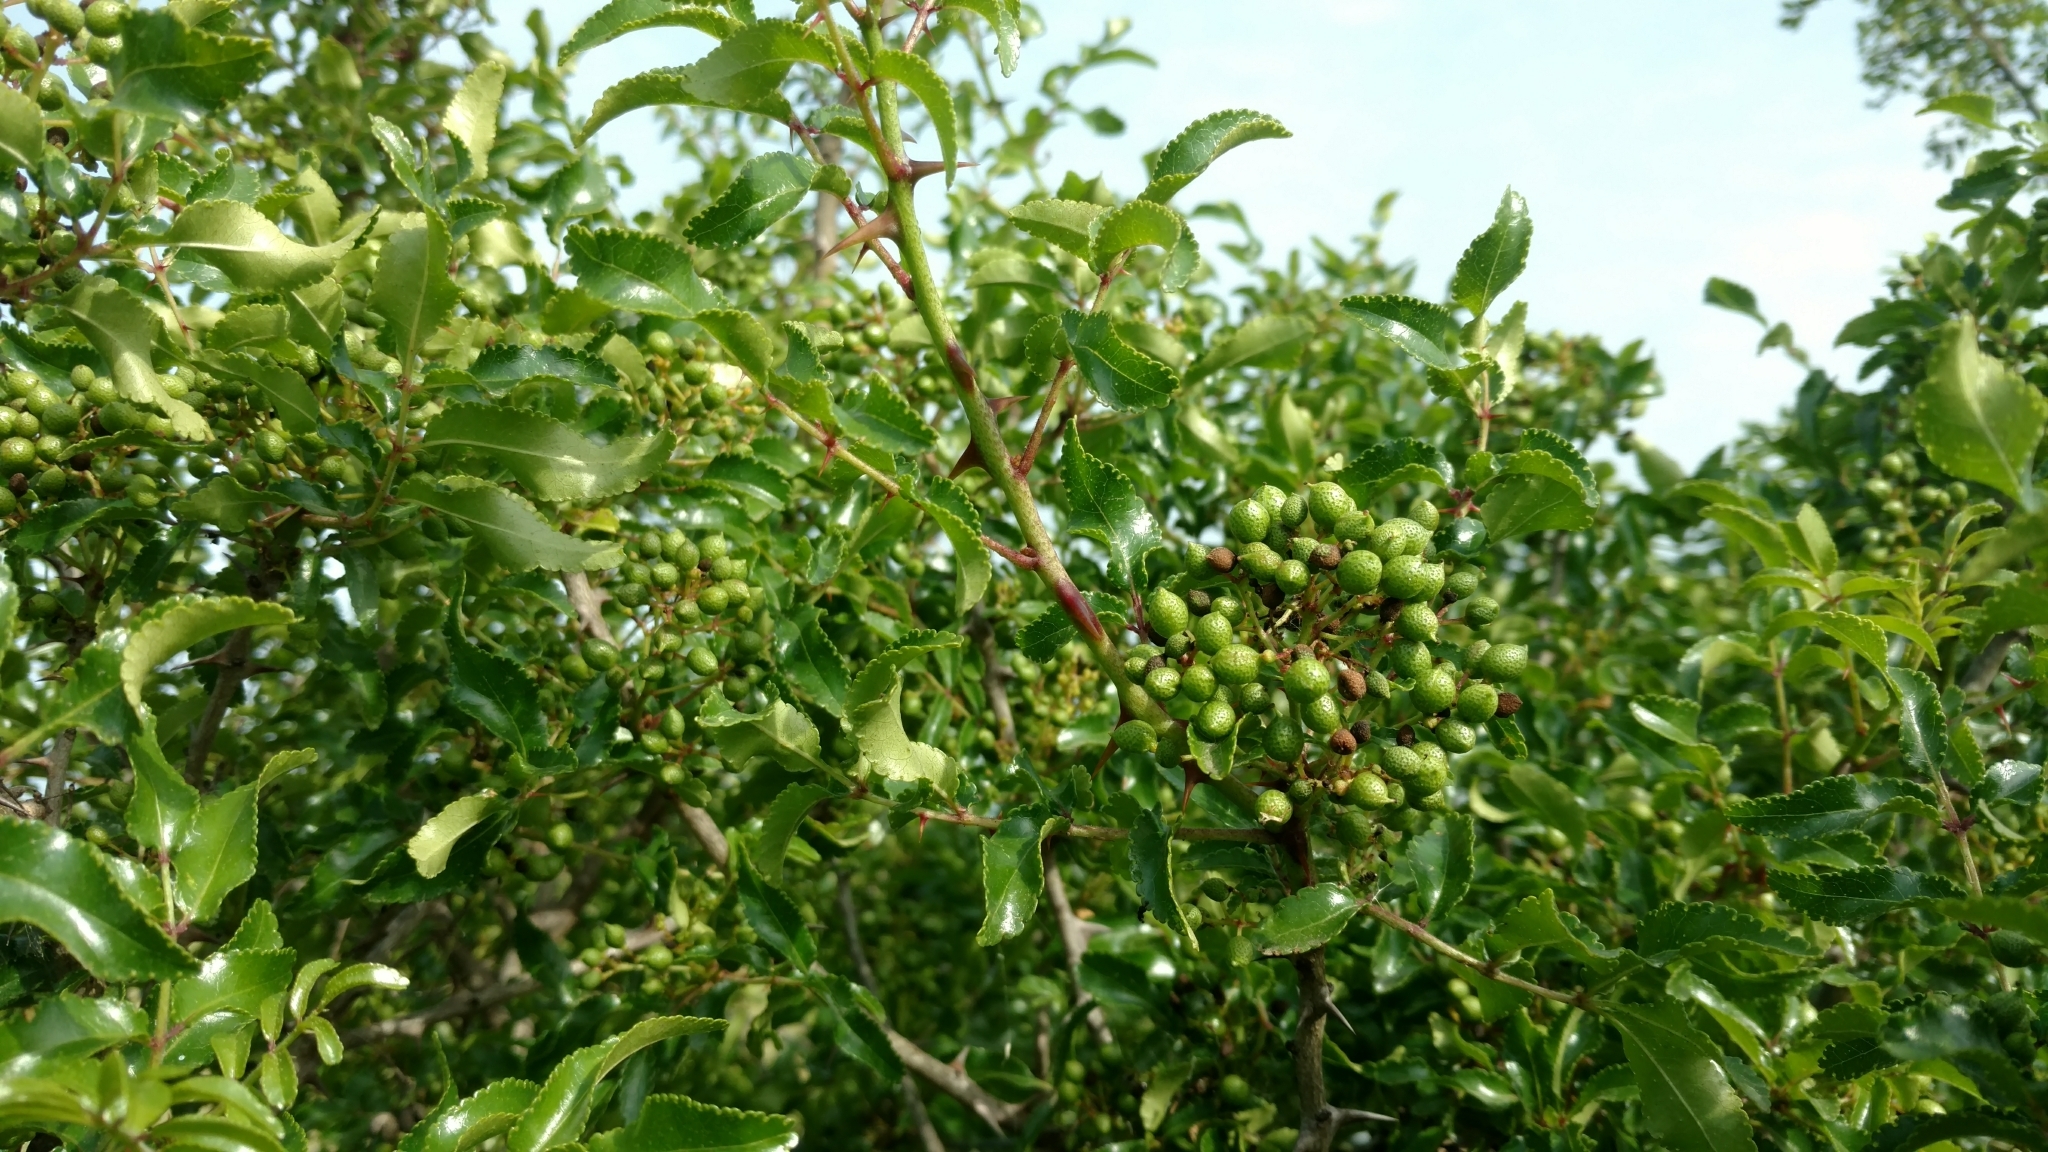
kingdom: Plantae
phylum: Tracheophyta
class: Magnoliopsida
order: Sapindales
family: Rutaceae
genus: Zanthoxylum
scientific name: Zanthoxylum clava-herculis
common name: Hercules'-club
